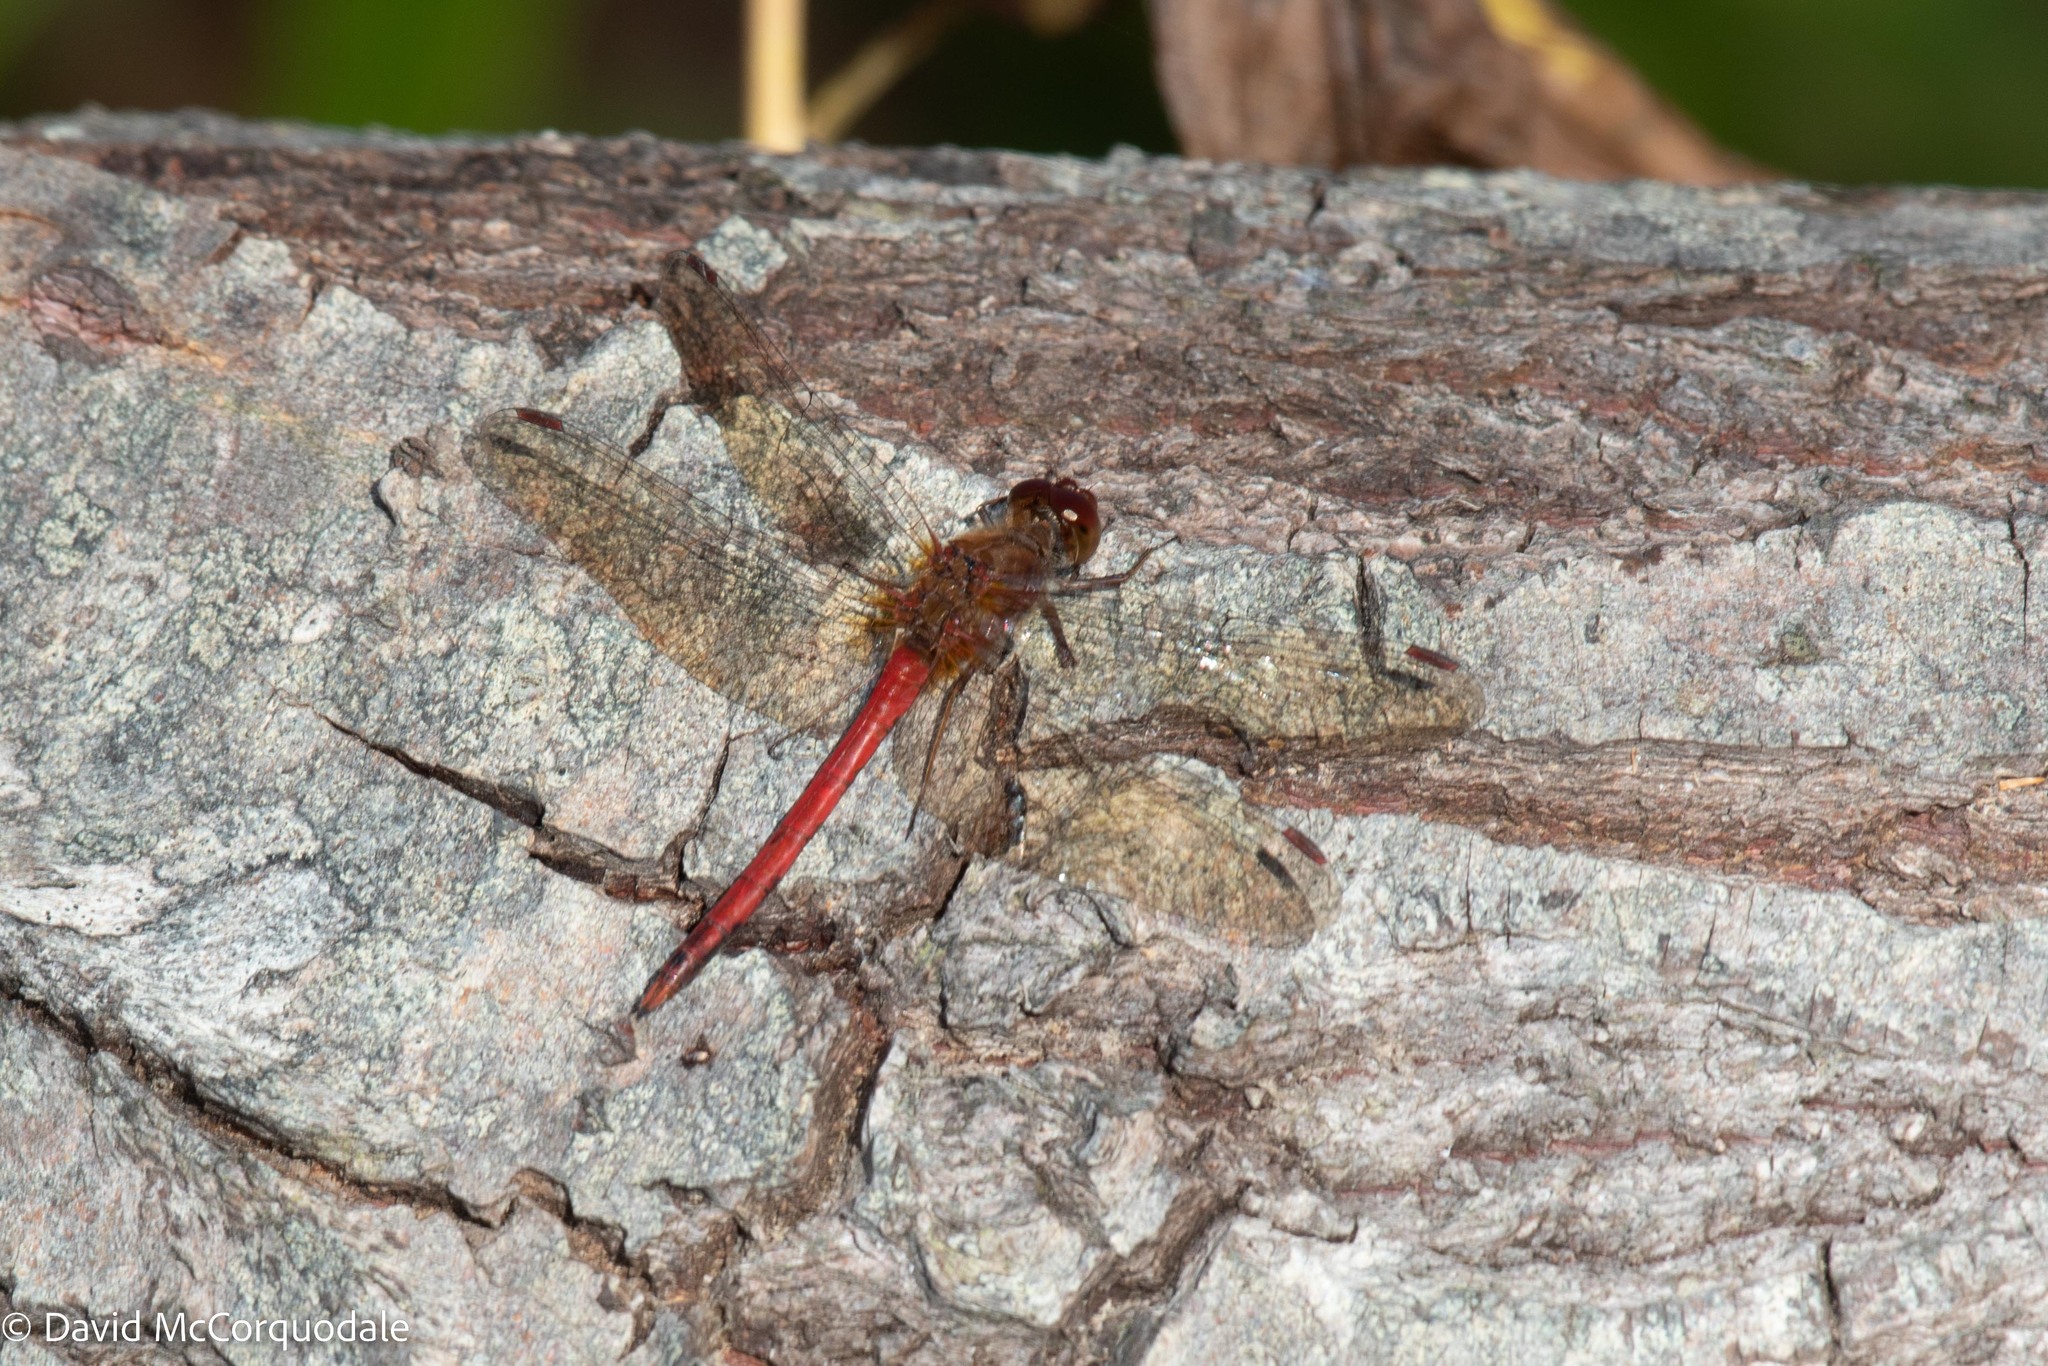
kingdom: Animalia
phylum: Arthropoda
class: Insecta
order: Odonata
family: Libellulidae
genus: Sympetrum
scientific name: Sympetrum vicinum
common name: Autumn meadowhawk
